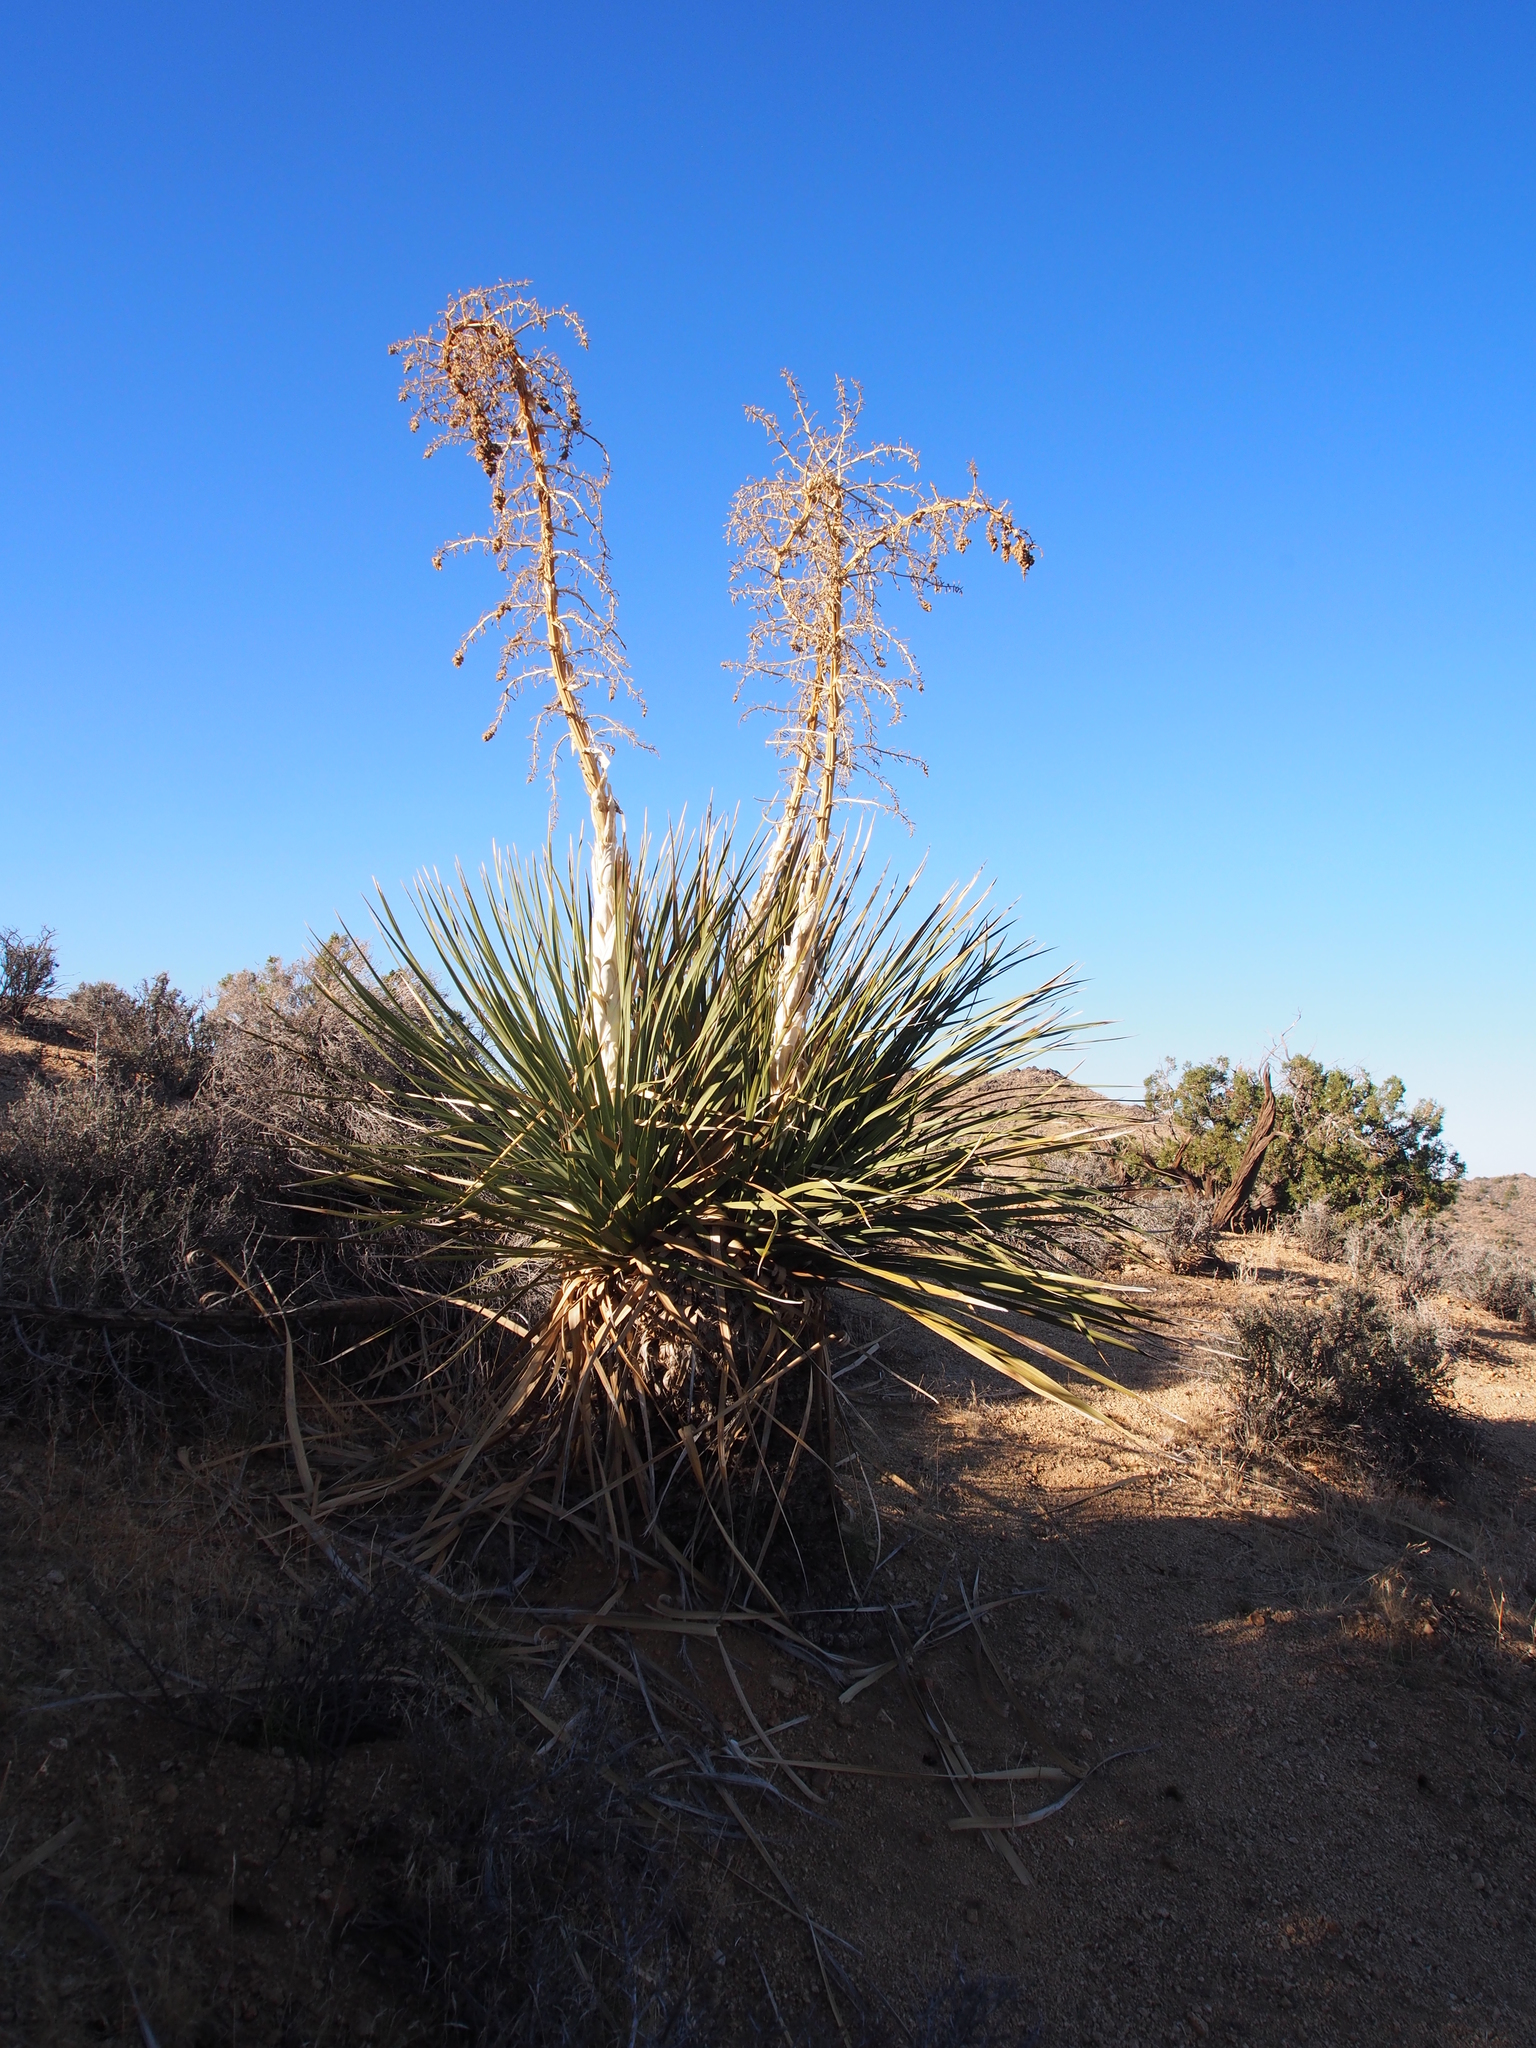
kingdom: Plantae
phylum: Tracheophyta
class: Liliopsida
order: Asparagales
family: Asparagaceae
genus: Nolina
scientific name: Nolina parryi
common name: Parry nolina
